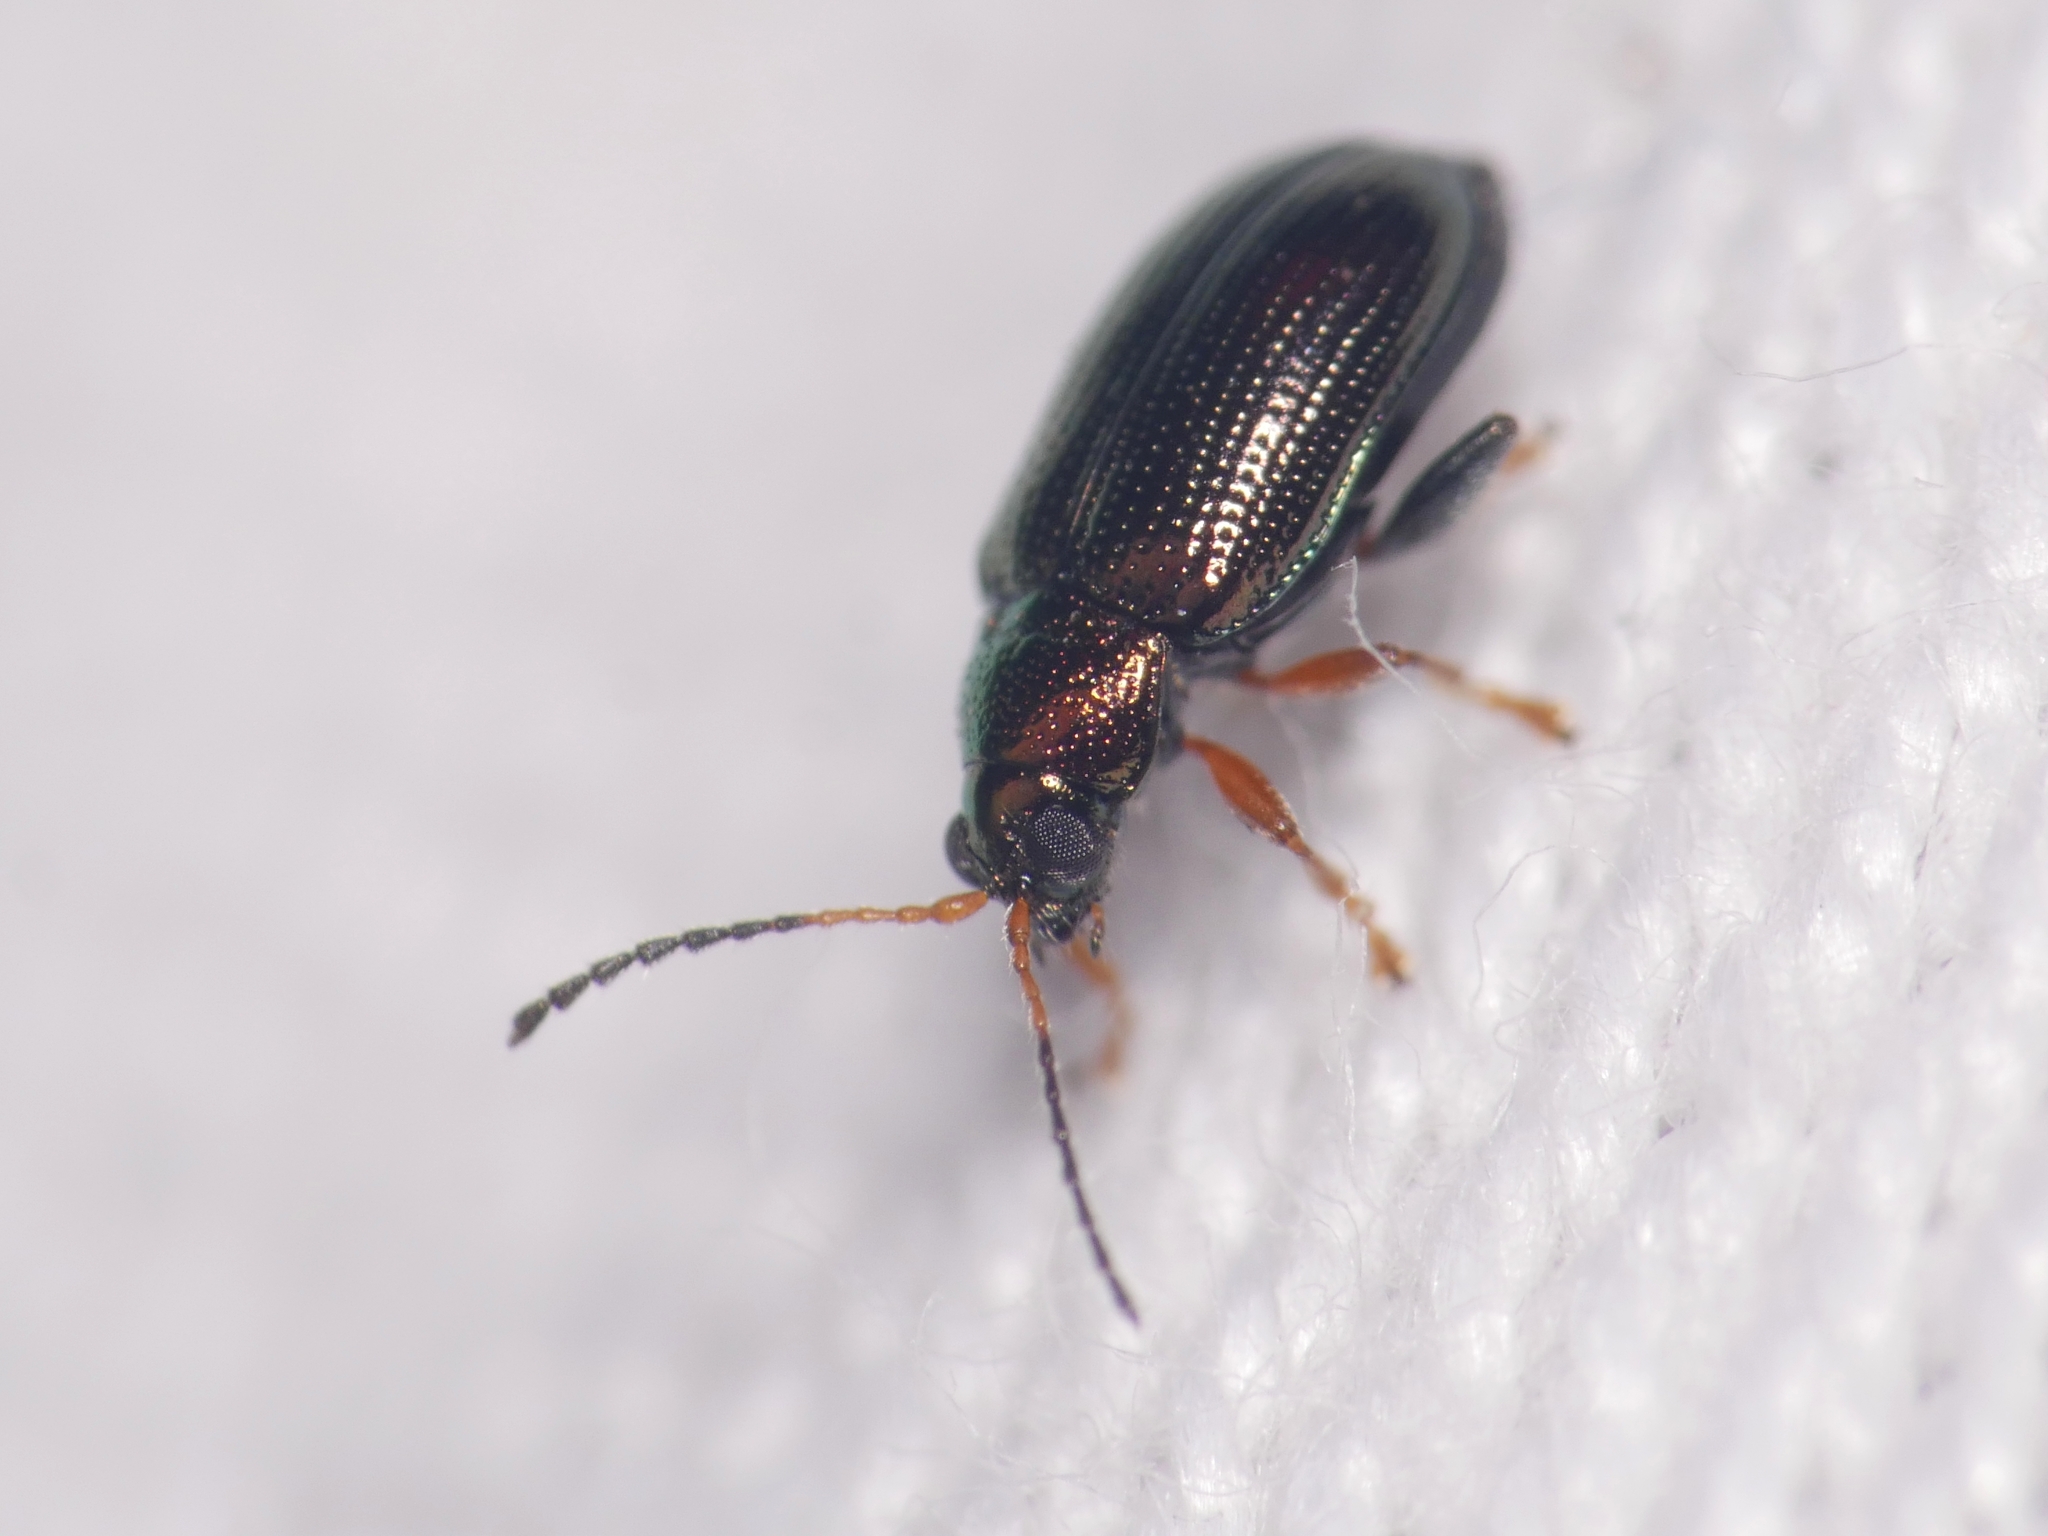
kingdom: Animalia
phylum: Arthropoda
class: Insecta
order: Coleoptera
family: Chrysomelidae
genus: Crepidodera
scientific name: Crepidodera plutus
